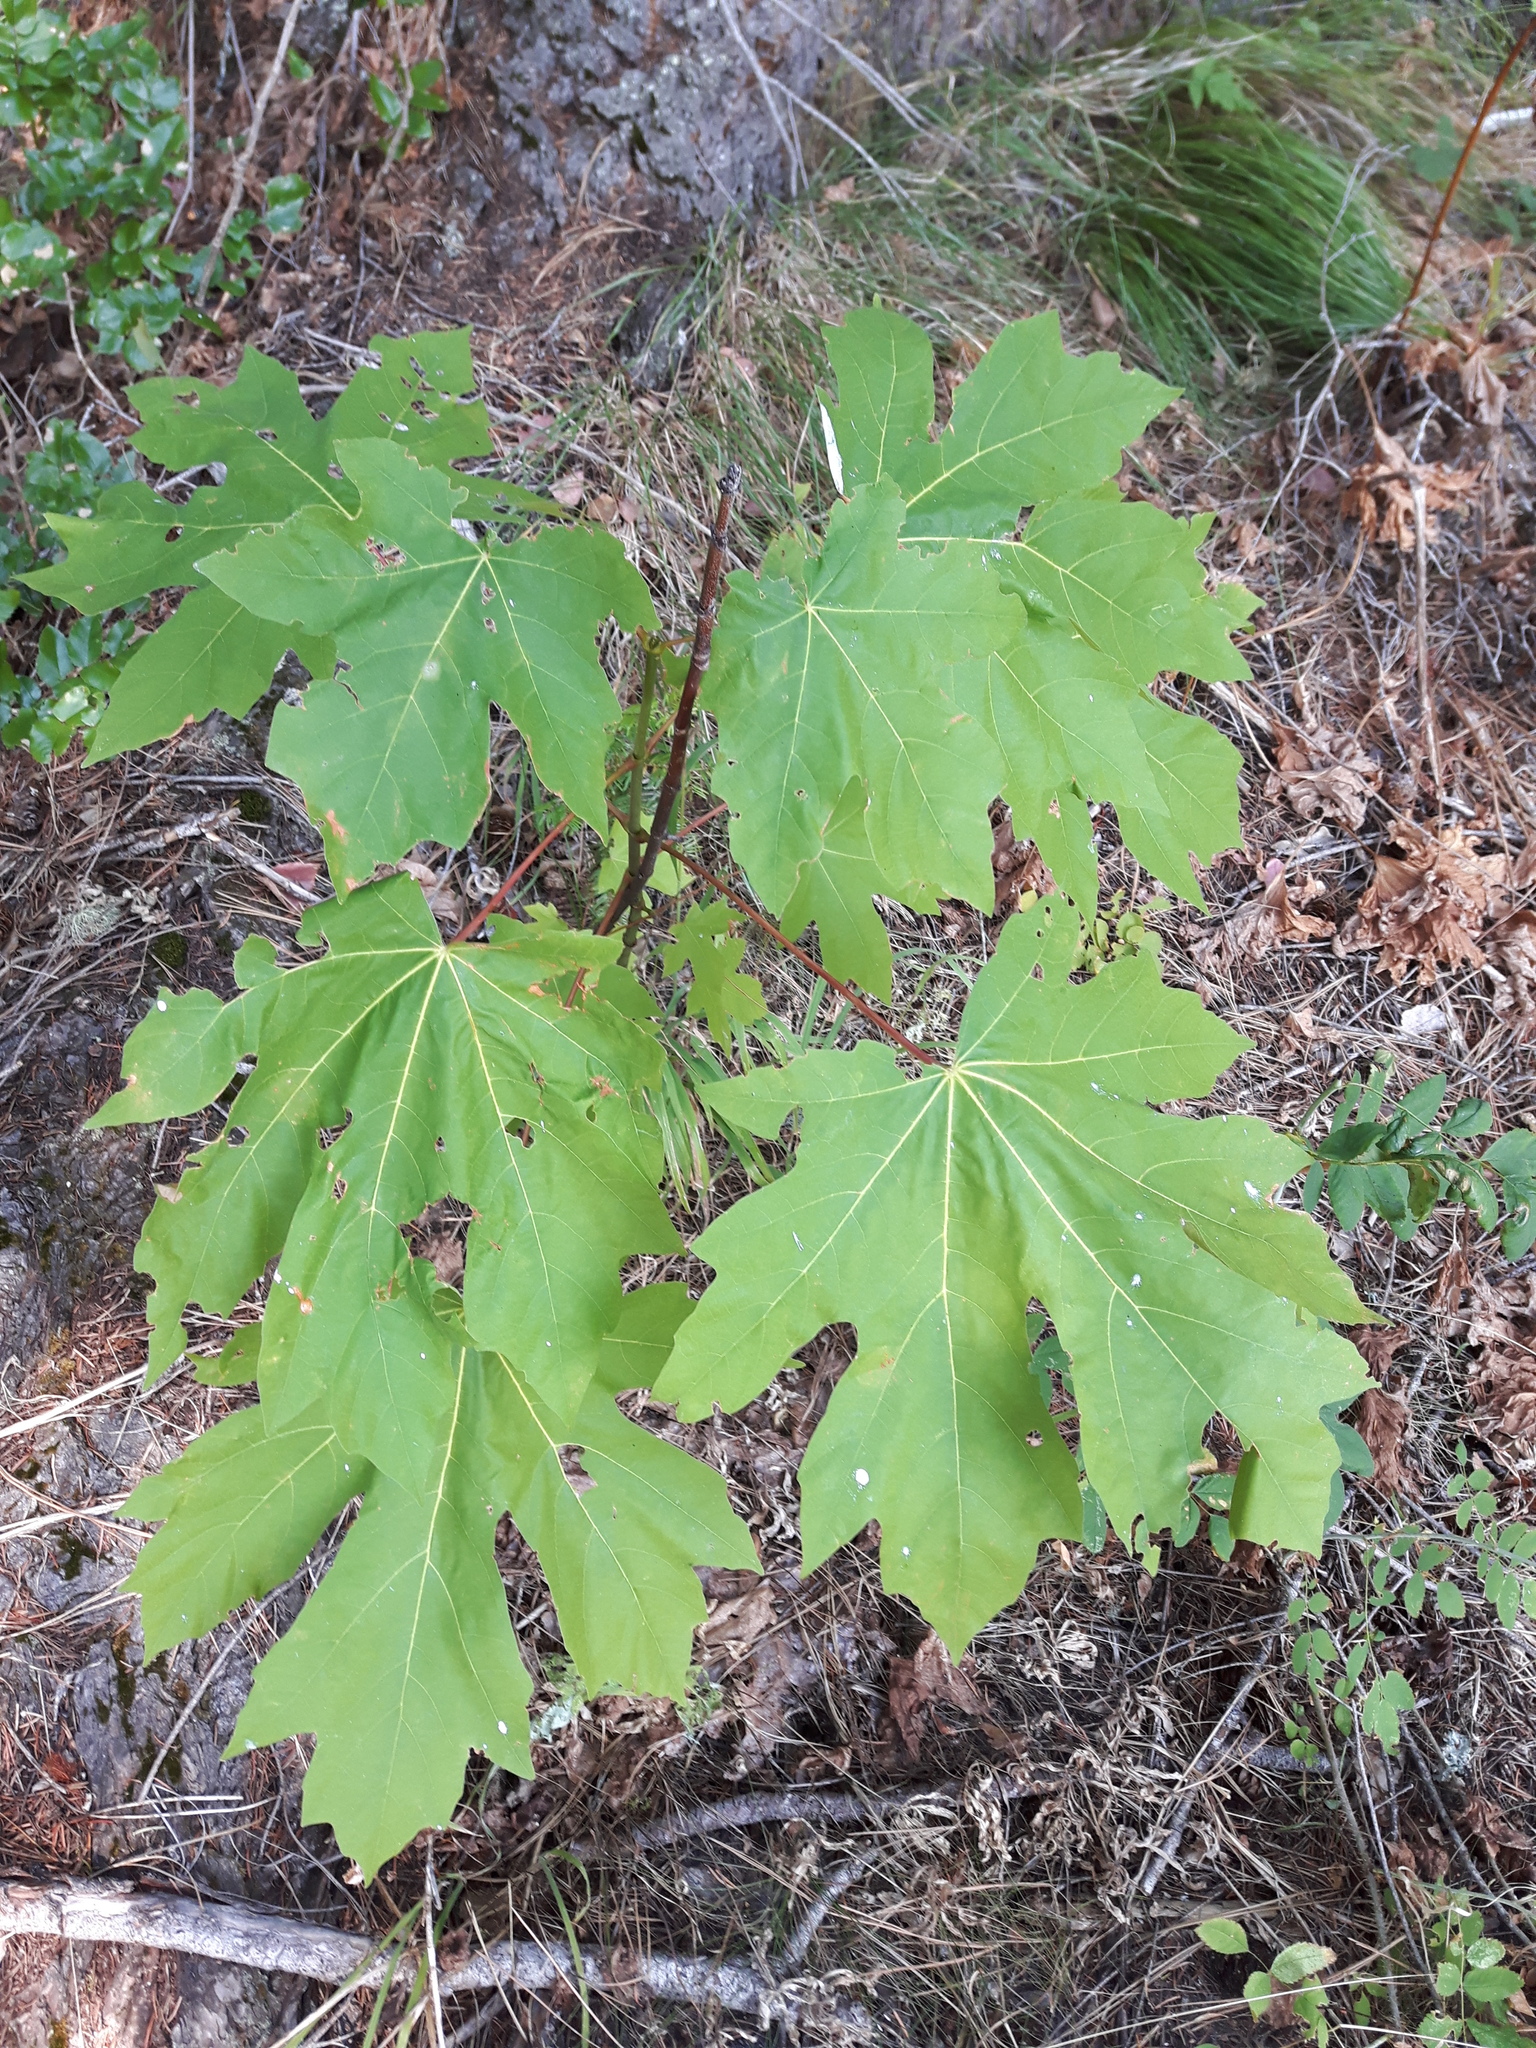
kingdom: Plantae
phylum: Tracheophyta
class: Magnoliopsida
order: Sapindales
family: Sapindaceae
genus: Acer
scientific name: Acer macrophyllum
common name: Oregon maple
